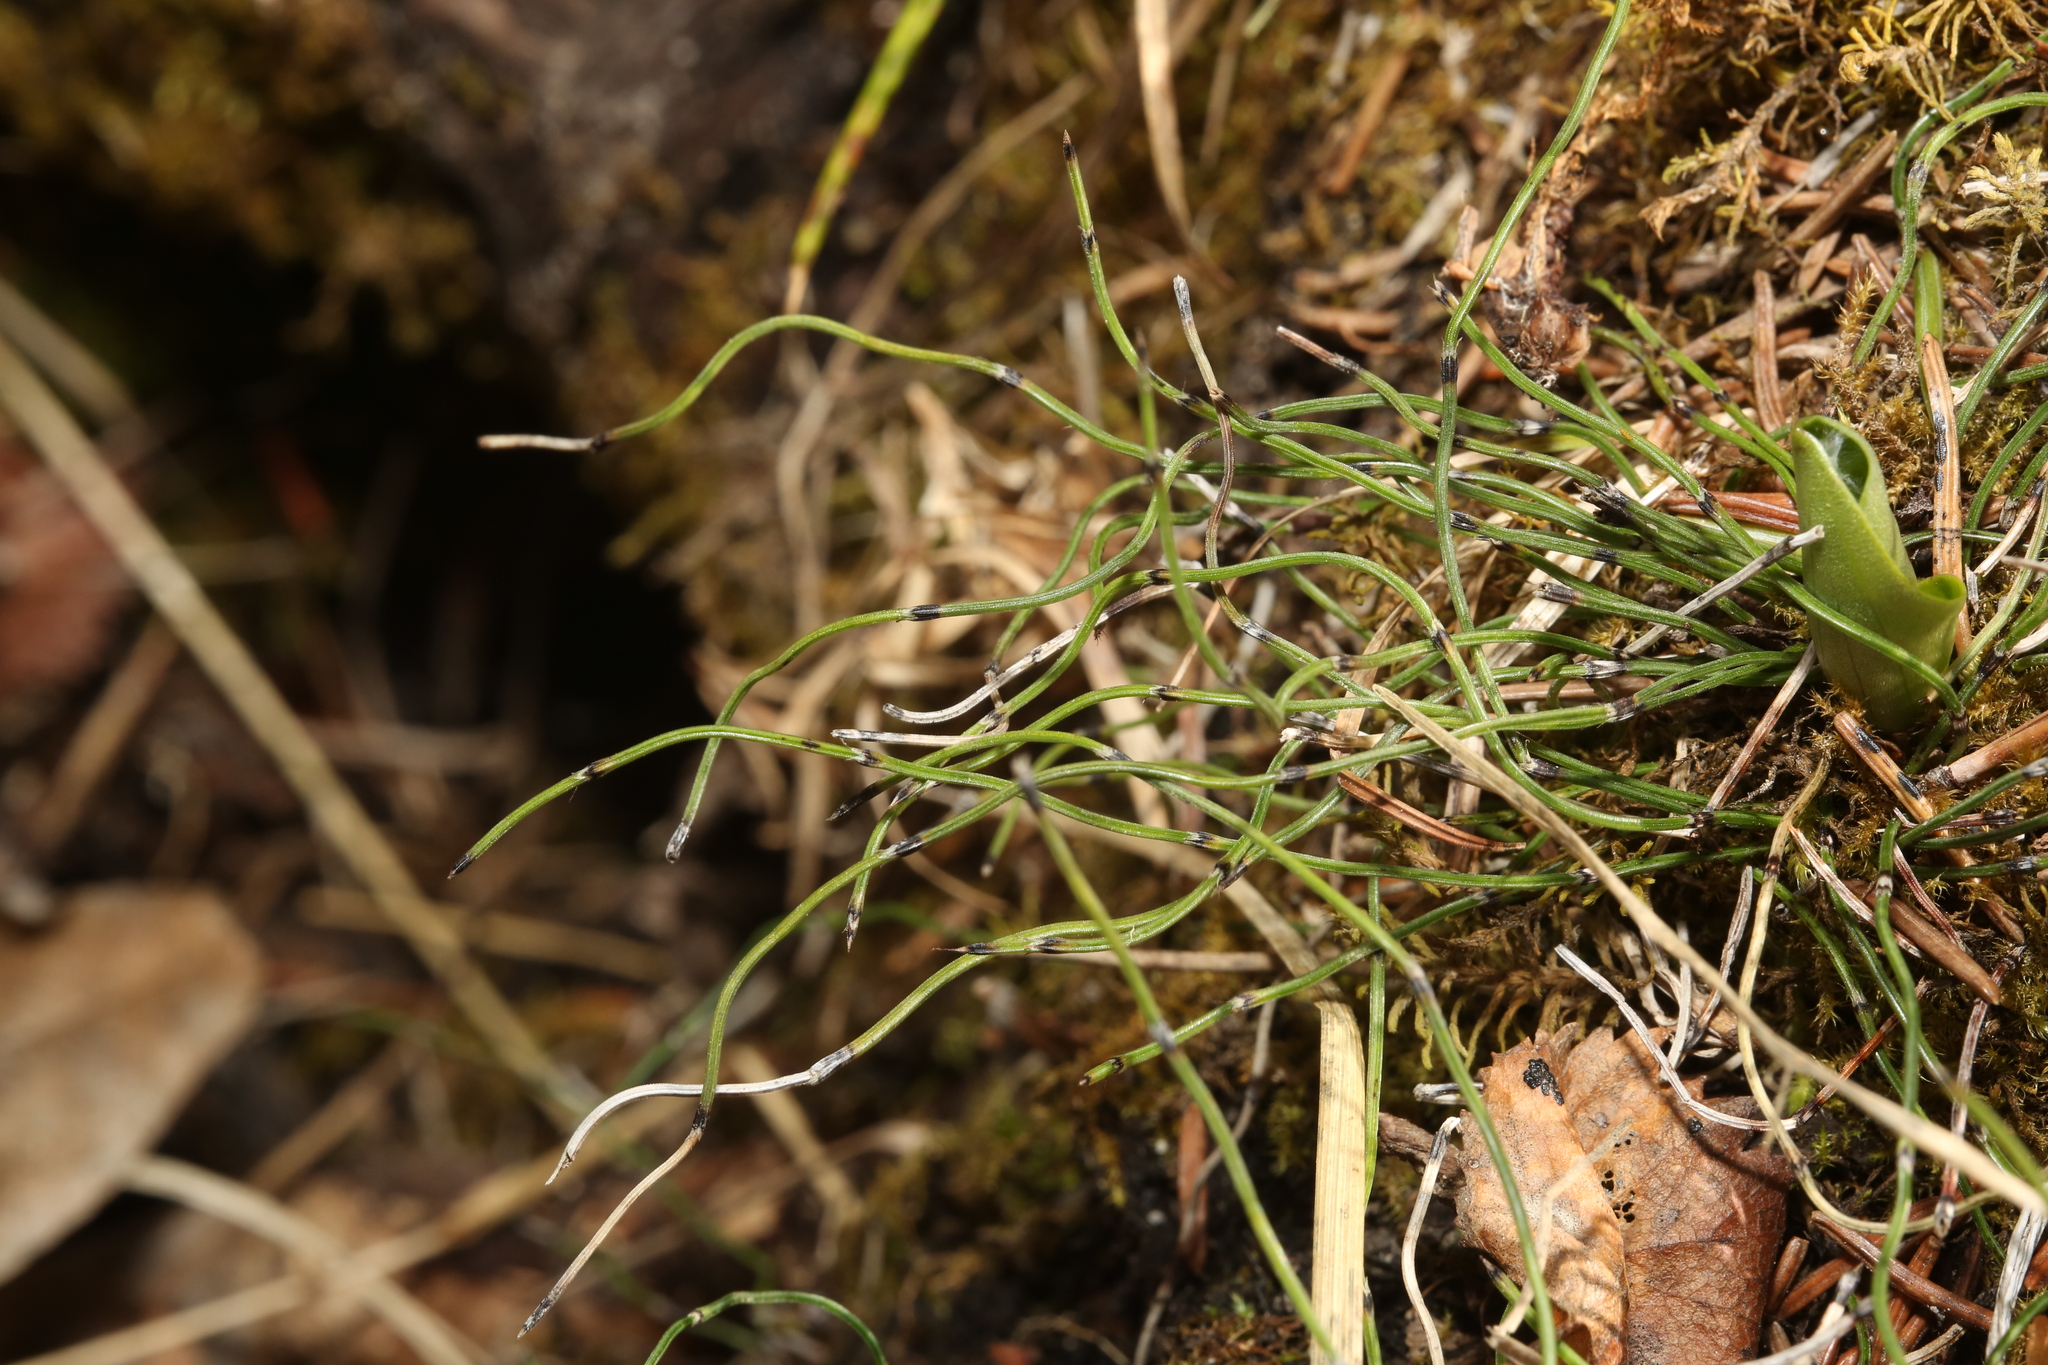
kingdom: Plantae
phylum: Tracheophyta
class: Polypodiopsida
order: Equisetales
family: Equisetaceae
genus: Equisetum
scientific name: Equisetum scirpoides
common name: Delicate horsetail
